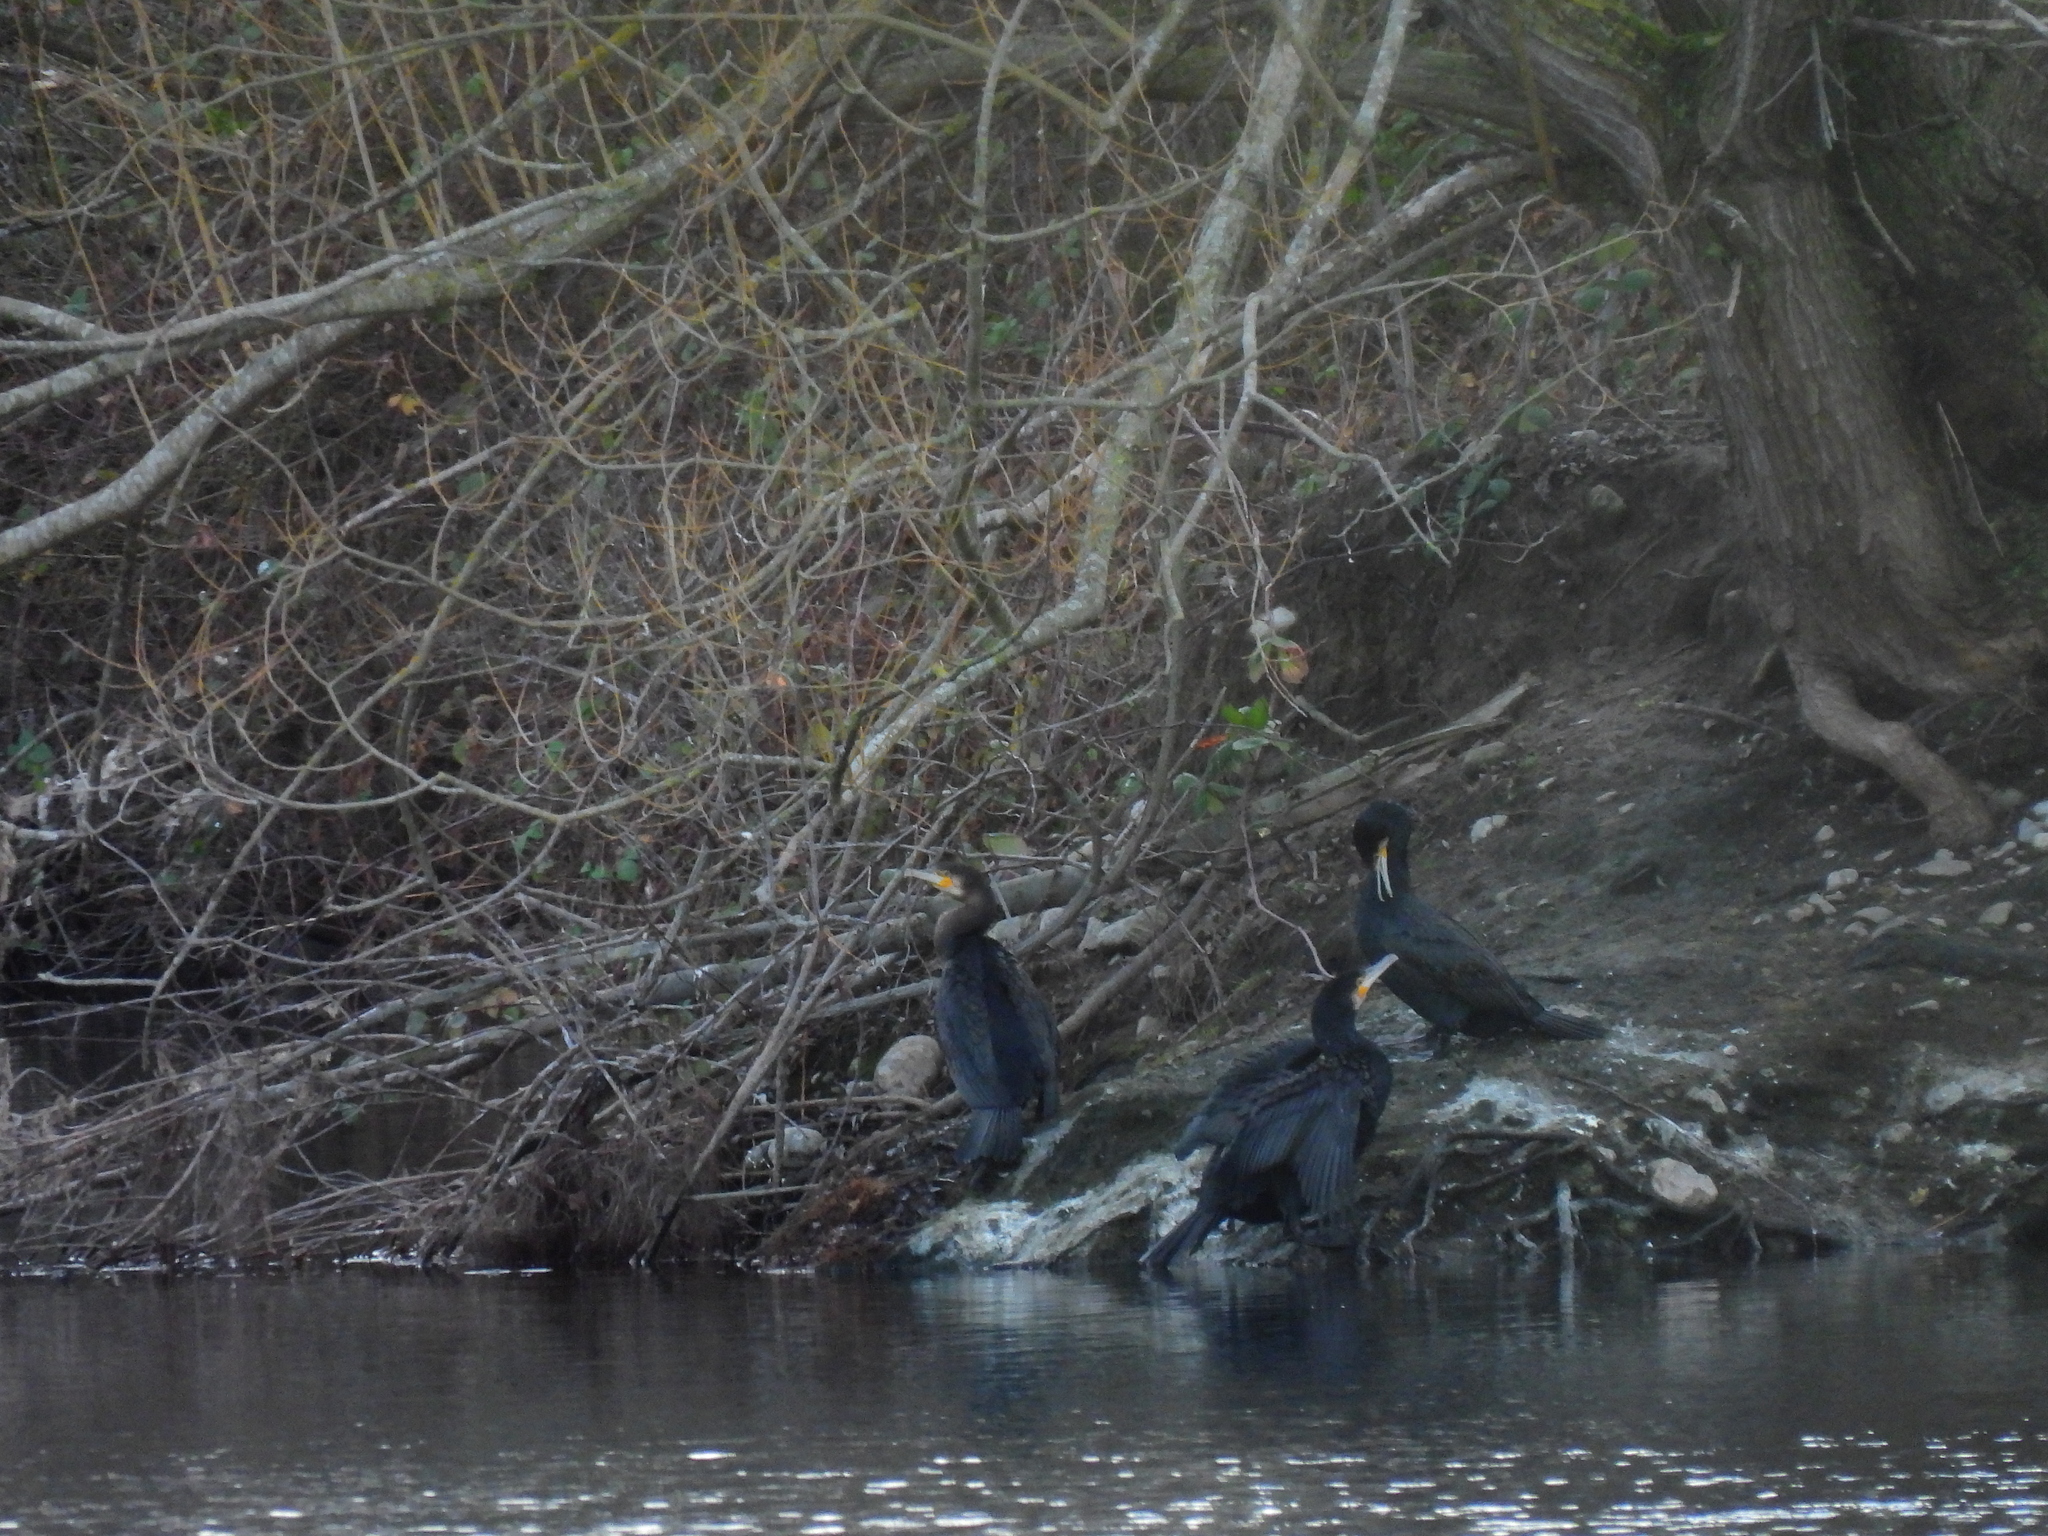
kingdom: Animalia
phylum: Chordata
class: Aves
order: Suliformes
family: Phalacrocoracidae
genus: Phalacrocorax
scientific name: Phalacrocorax carbo
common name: Great cormorant
